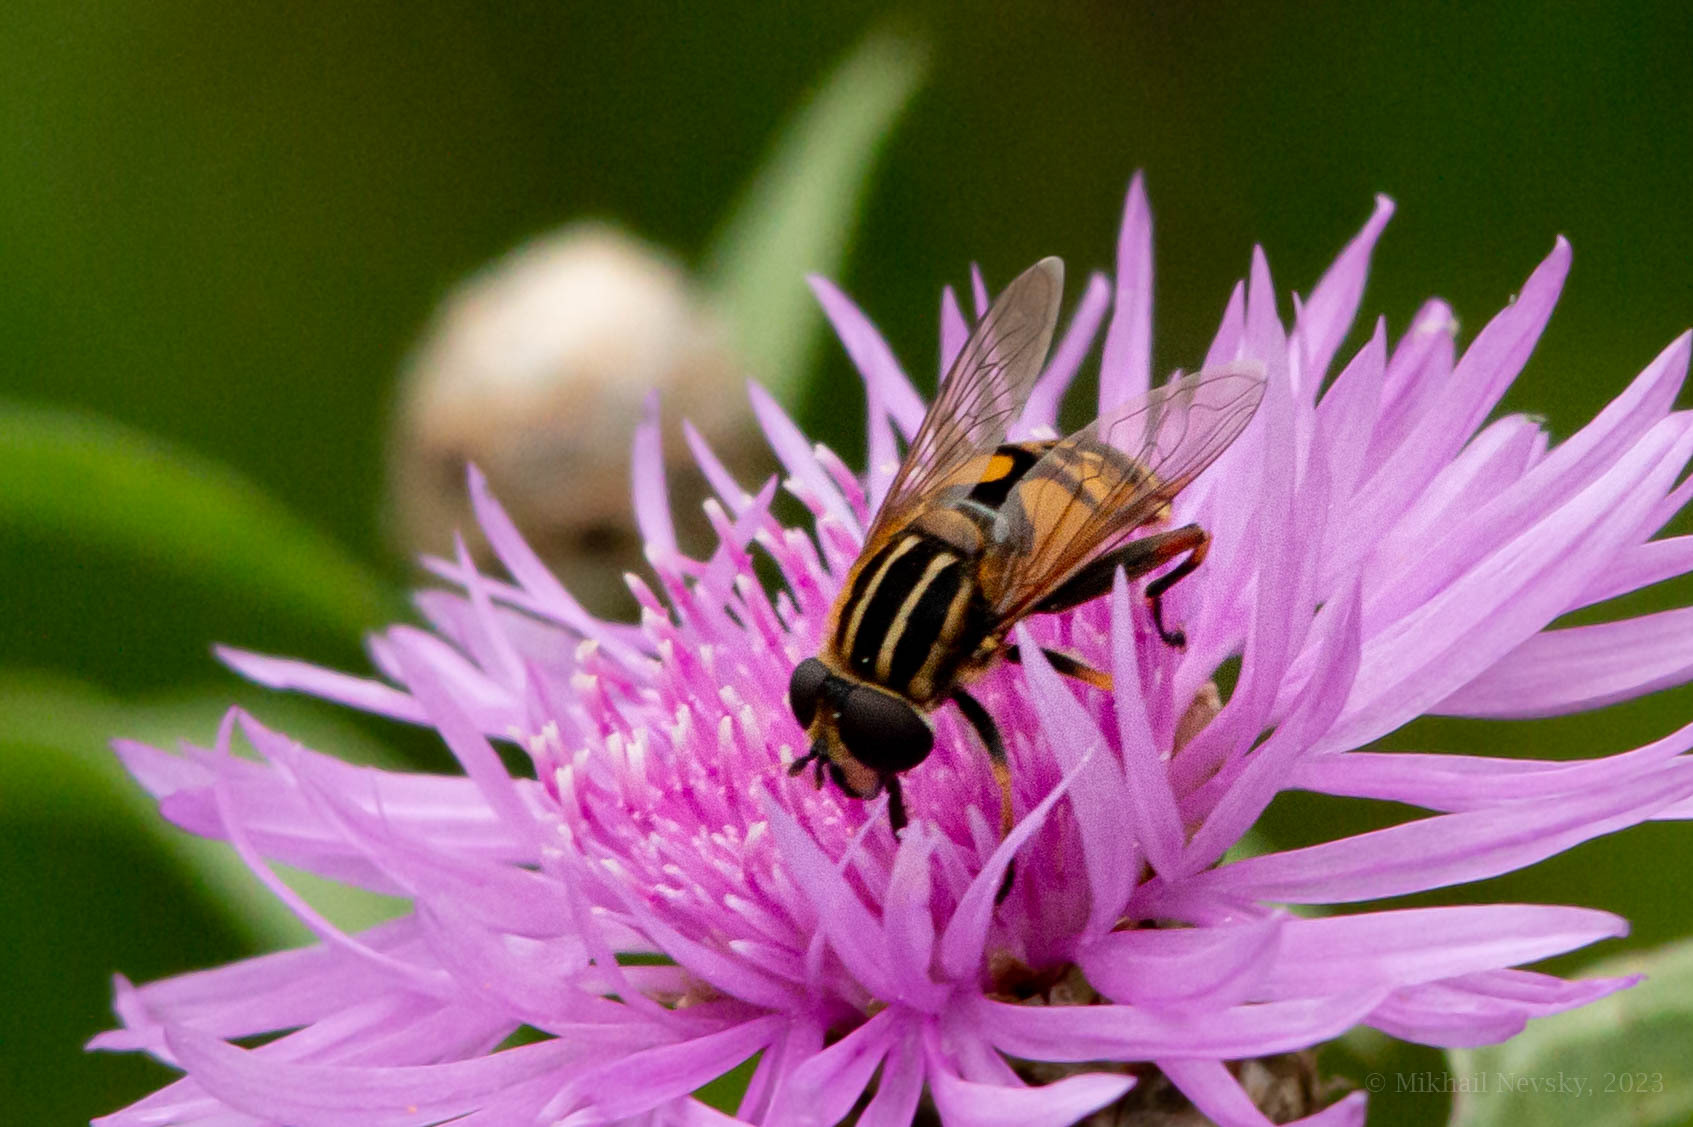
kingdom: Animalia
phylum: Arthropoda
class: Insecta
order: Diptera
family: Syrphidae
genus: Helophilus
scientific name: Helophilus pendulus
